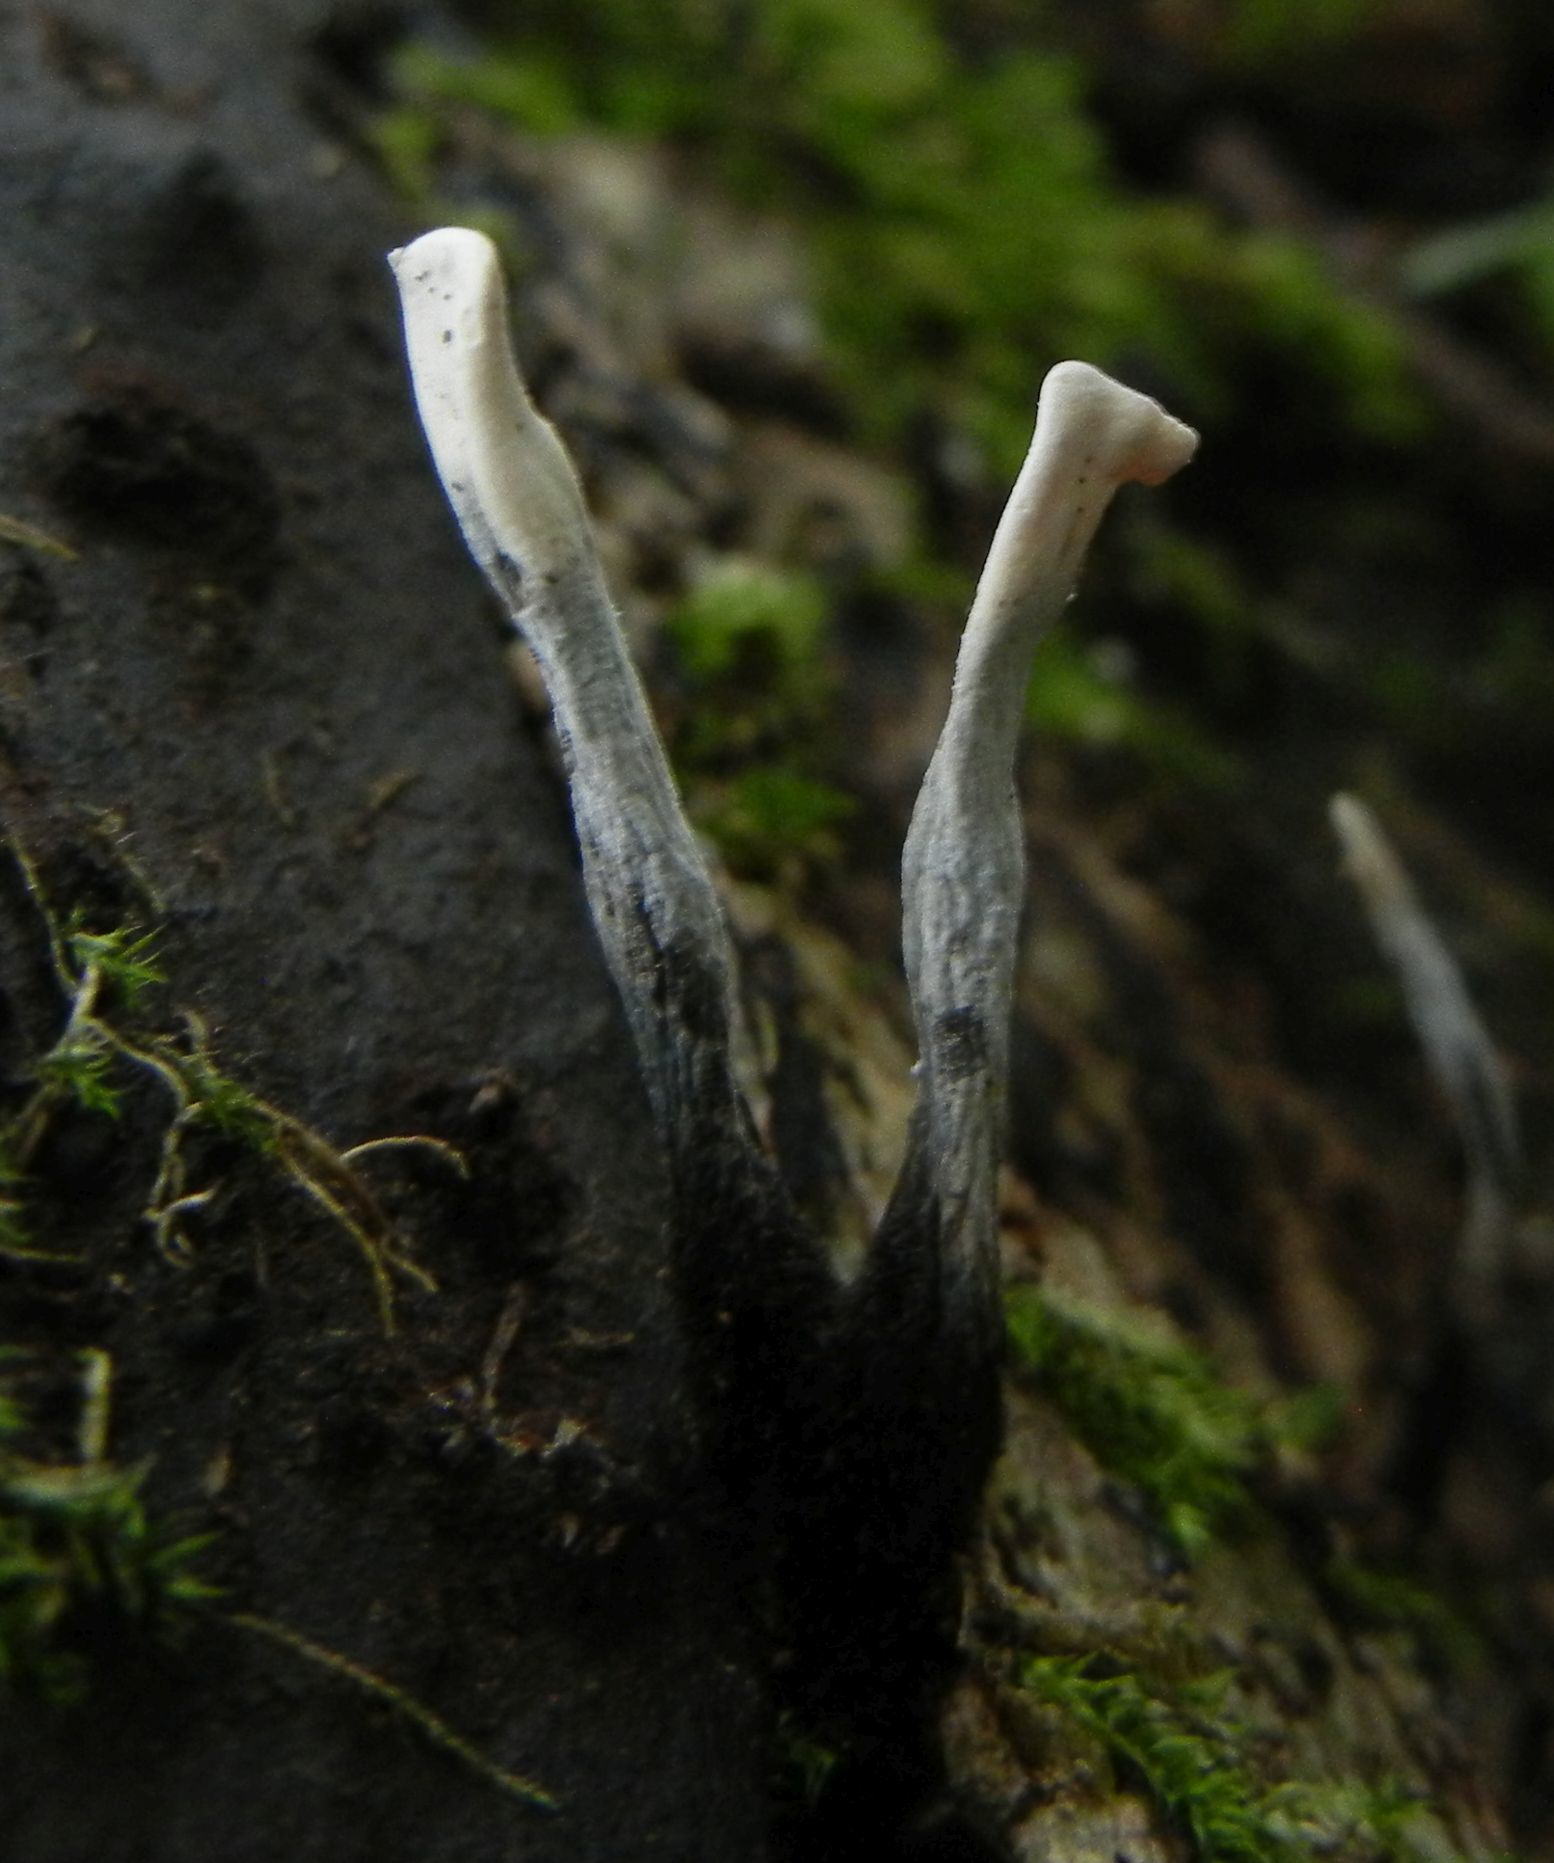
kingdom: Fungi
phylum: Ascomycota
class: Sordariomycetes
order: Xylariales
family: Xylariaceae
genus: Xylaria
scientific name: Xylaria hypoxylon
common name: Candle-snuff fungus
